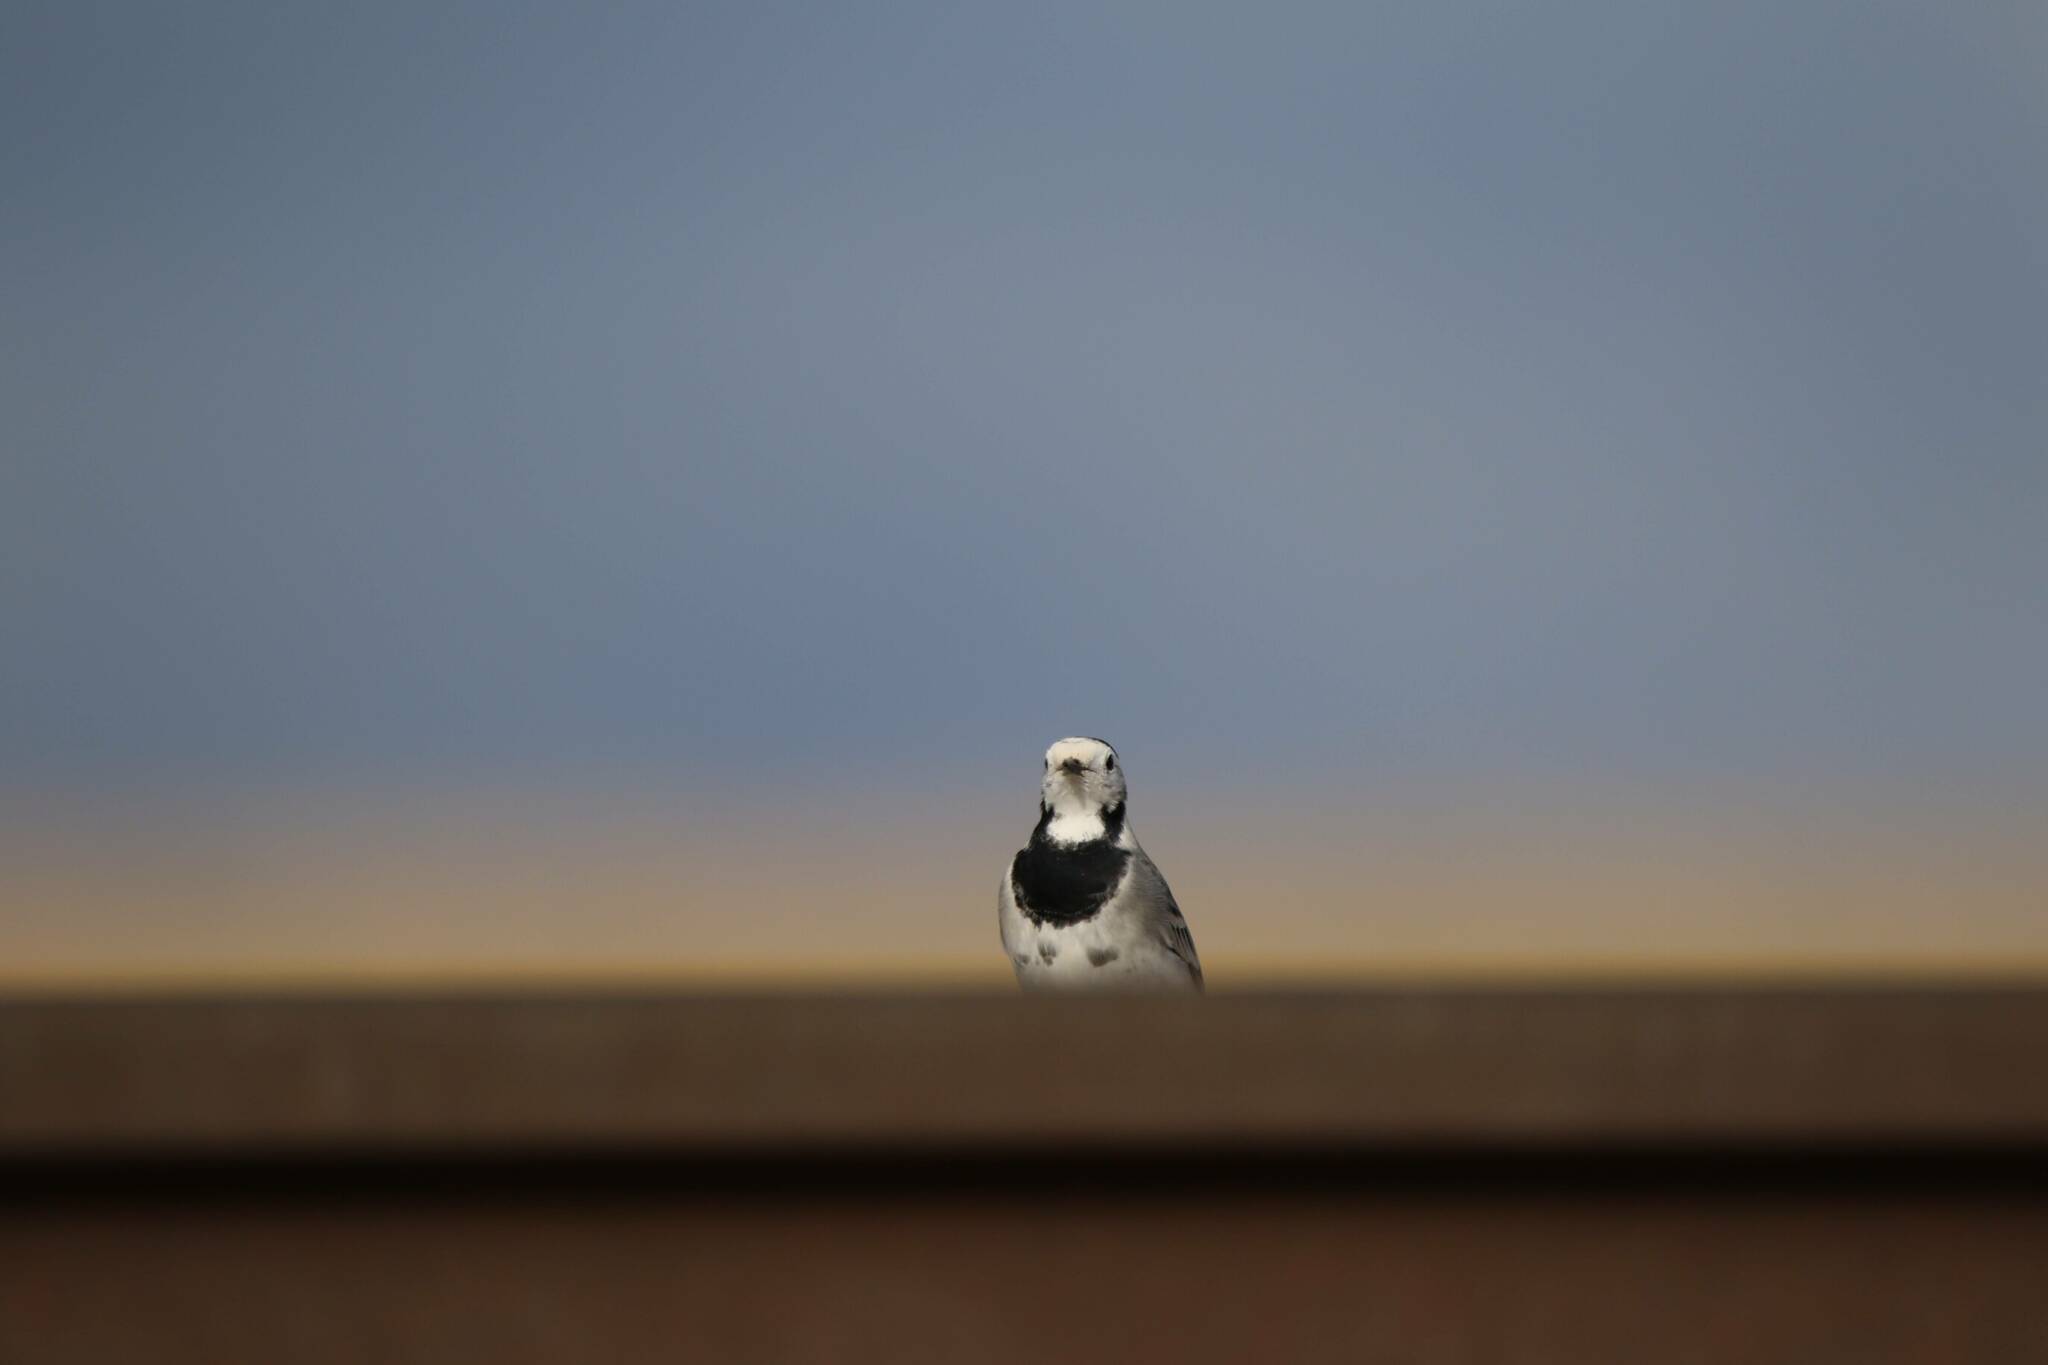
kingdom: Animalia
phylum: Chordata
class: Aves
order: Passeriformes
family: Motacillidae
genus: Motacilla
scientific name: Motacilla alba
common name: White wagtail
